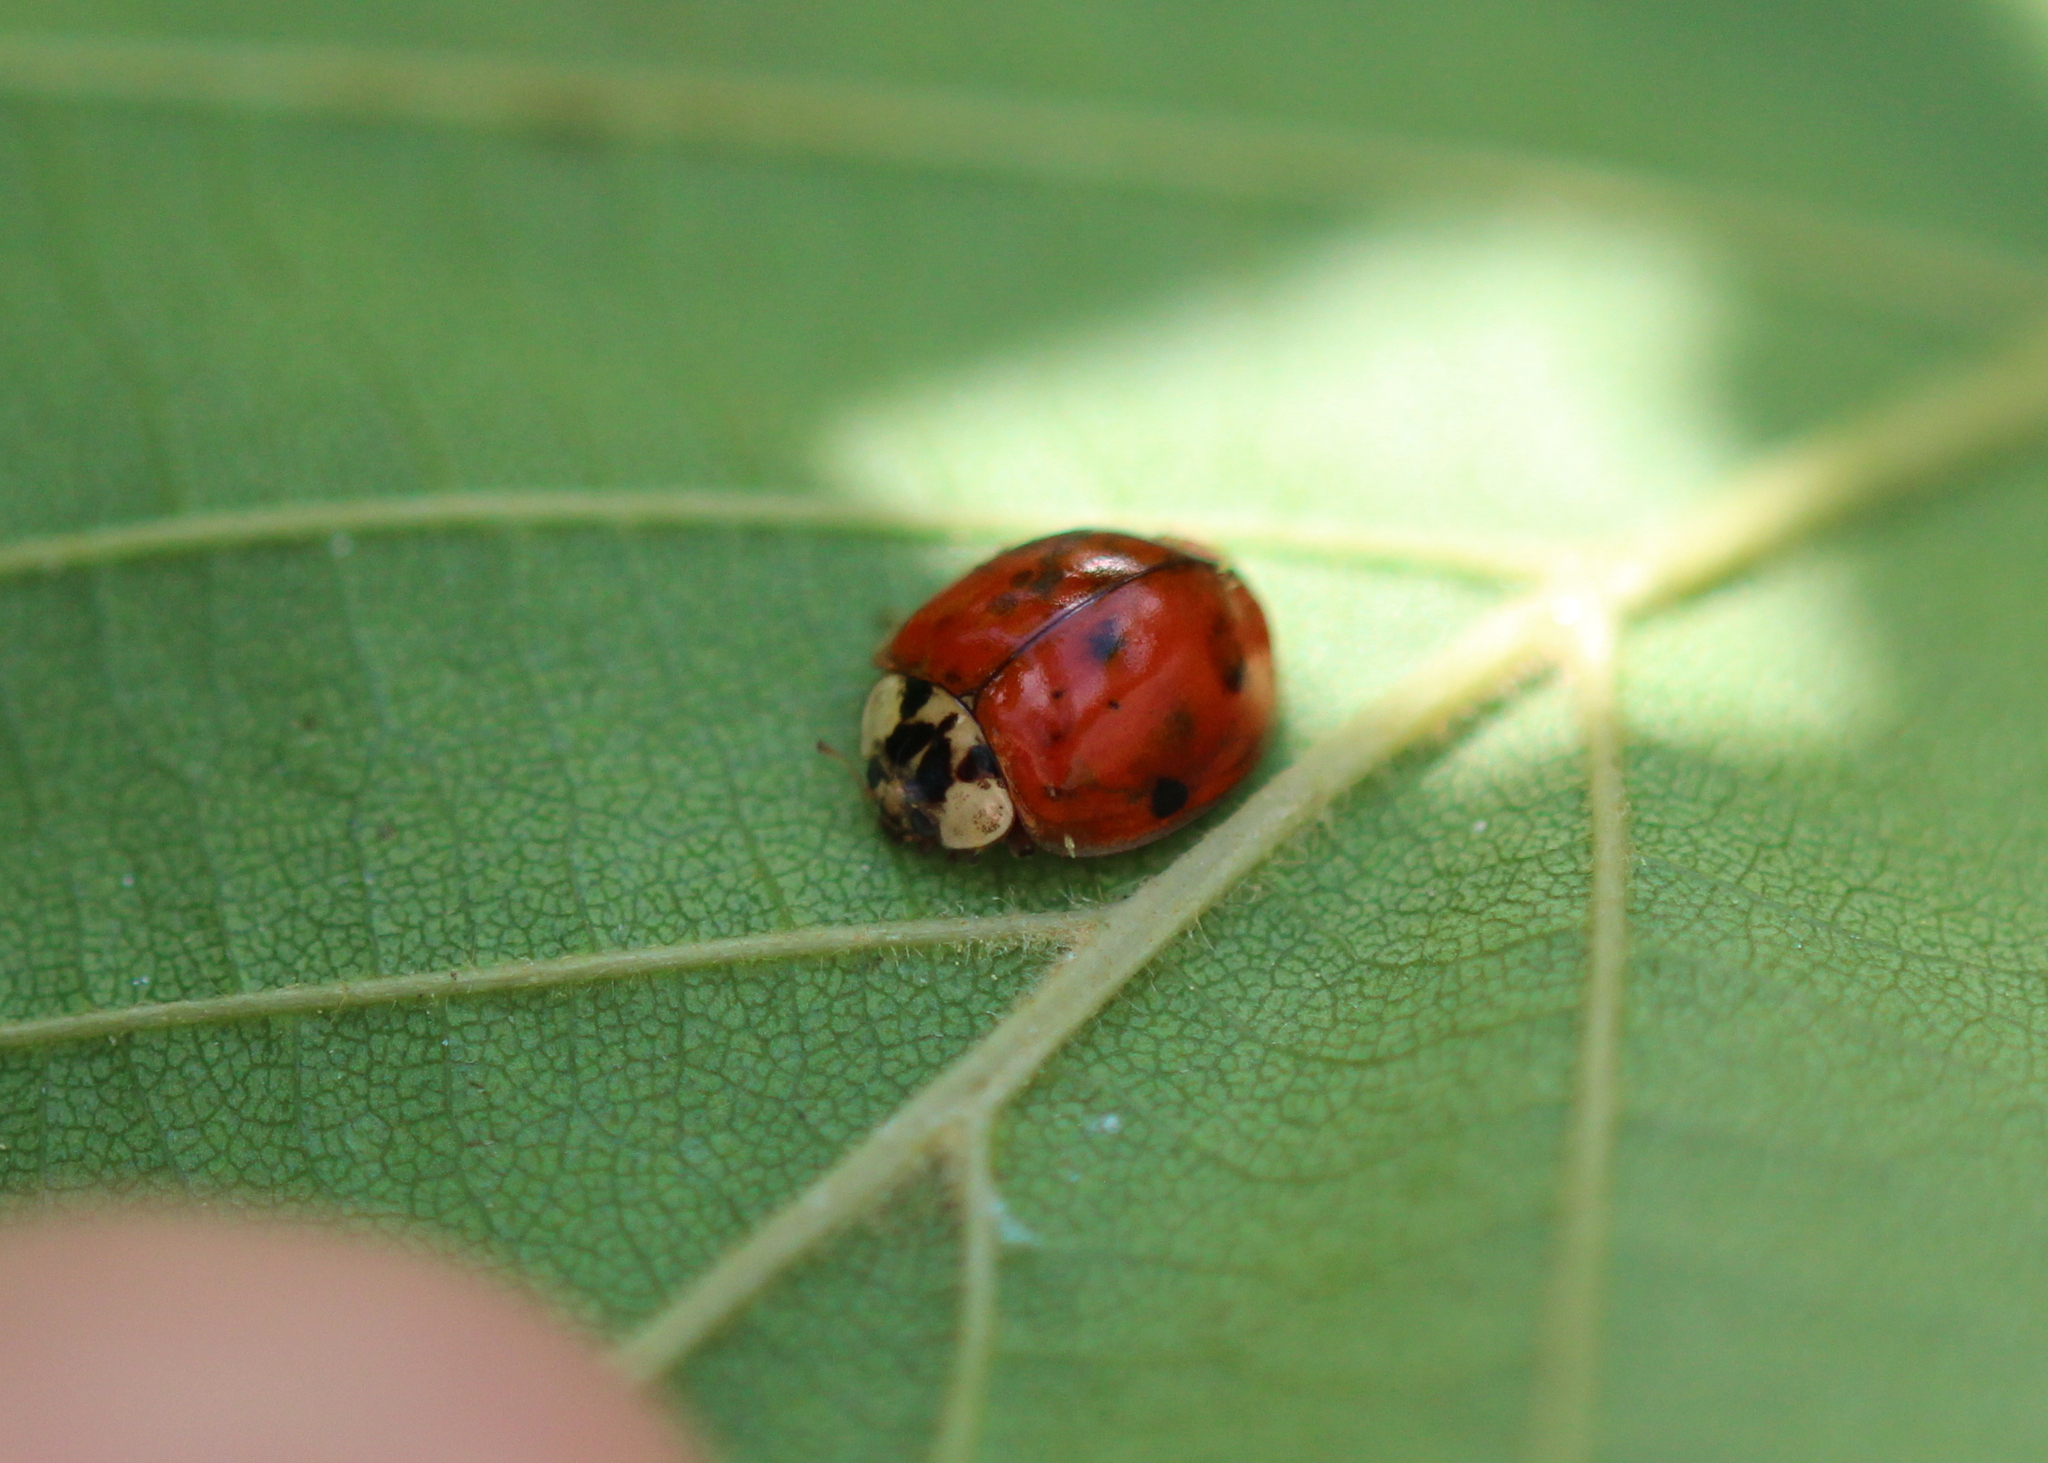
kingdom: Animalia
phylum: Arthropoda
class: Insecta
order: Coleoptera
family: Coccinellidae
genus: Harmonia
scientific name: Harmonia axyridis
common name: Harlequin ladybird
